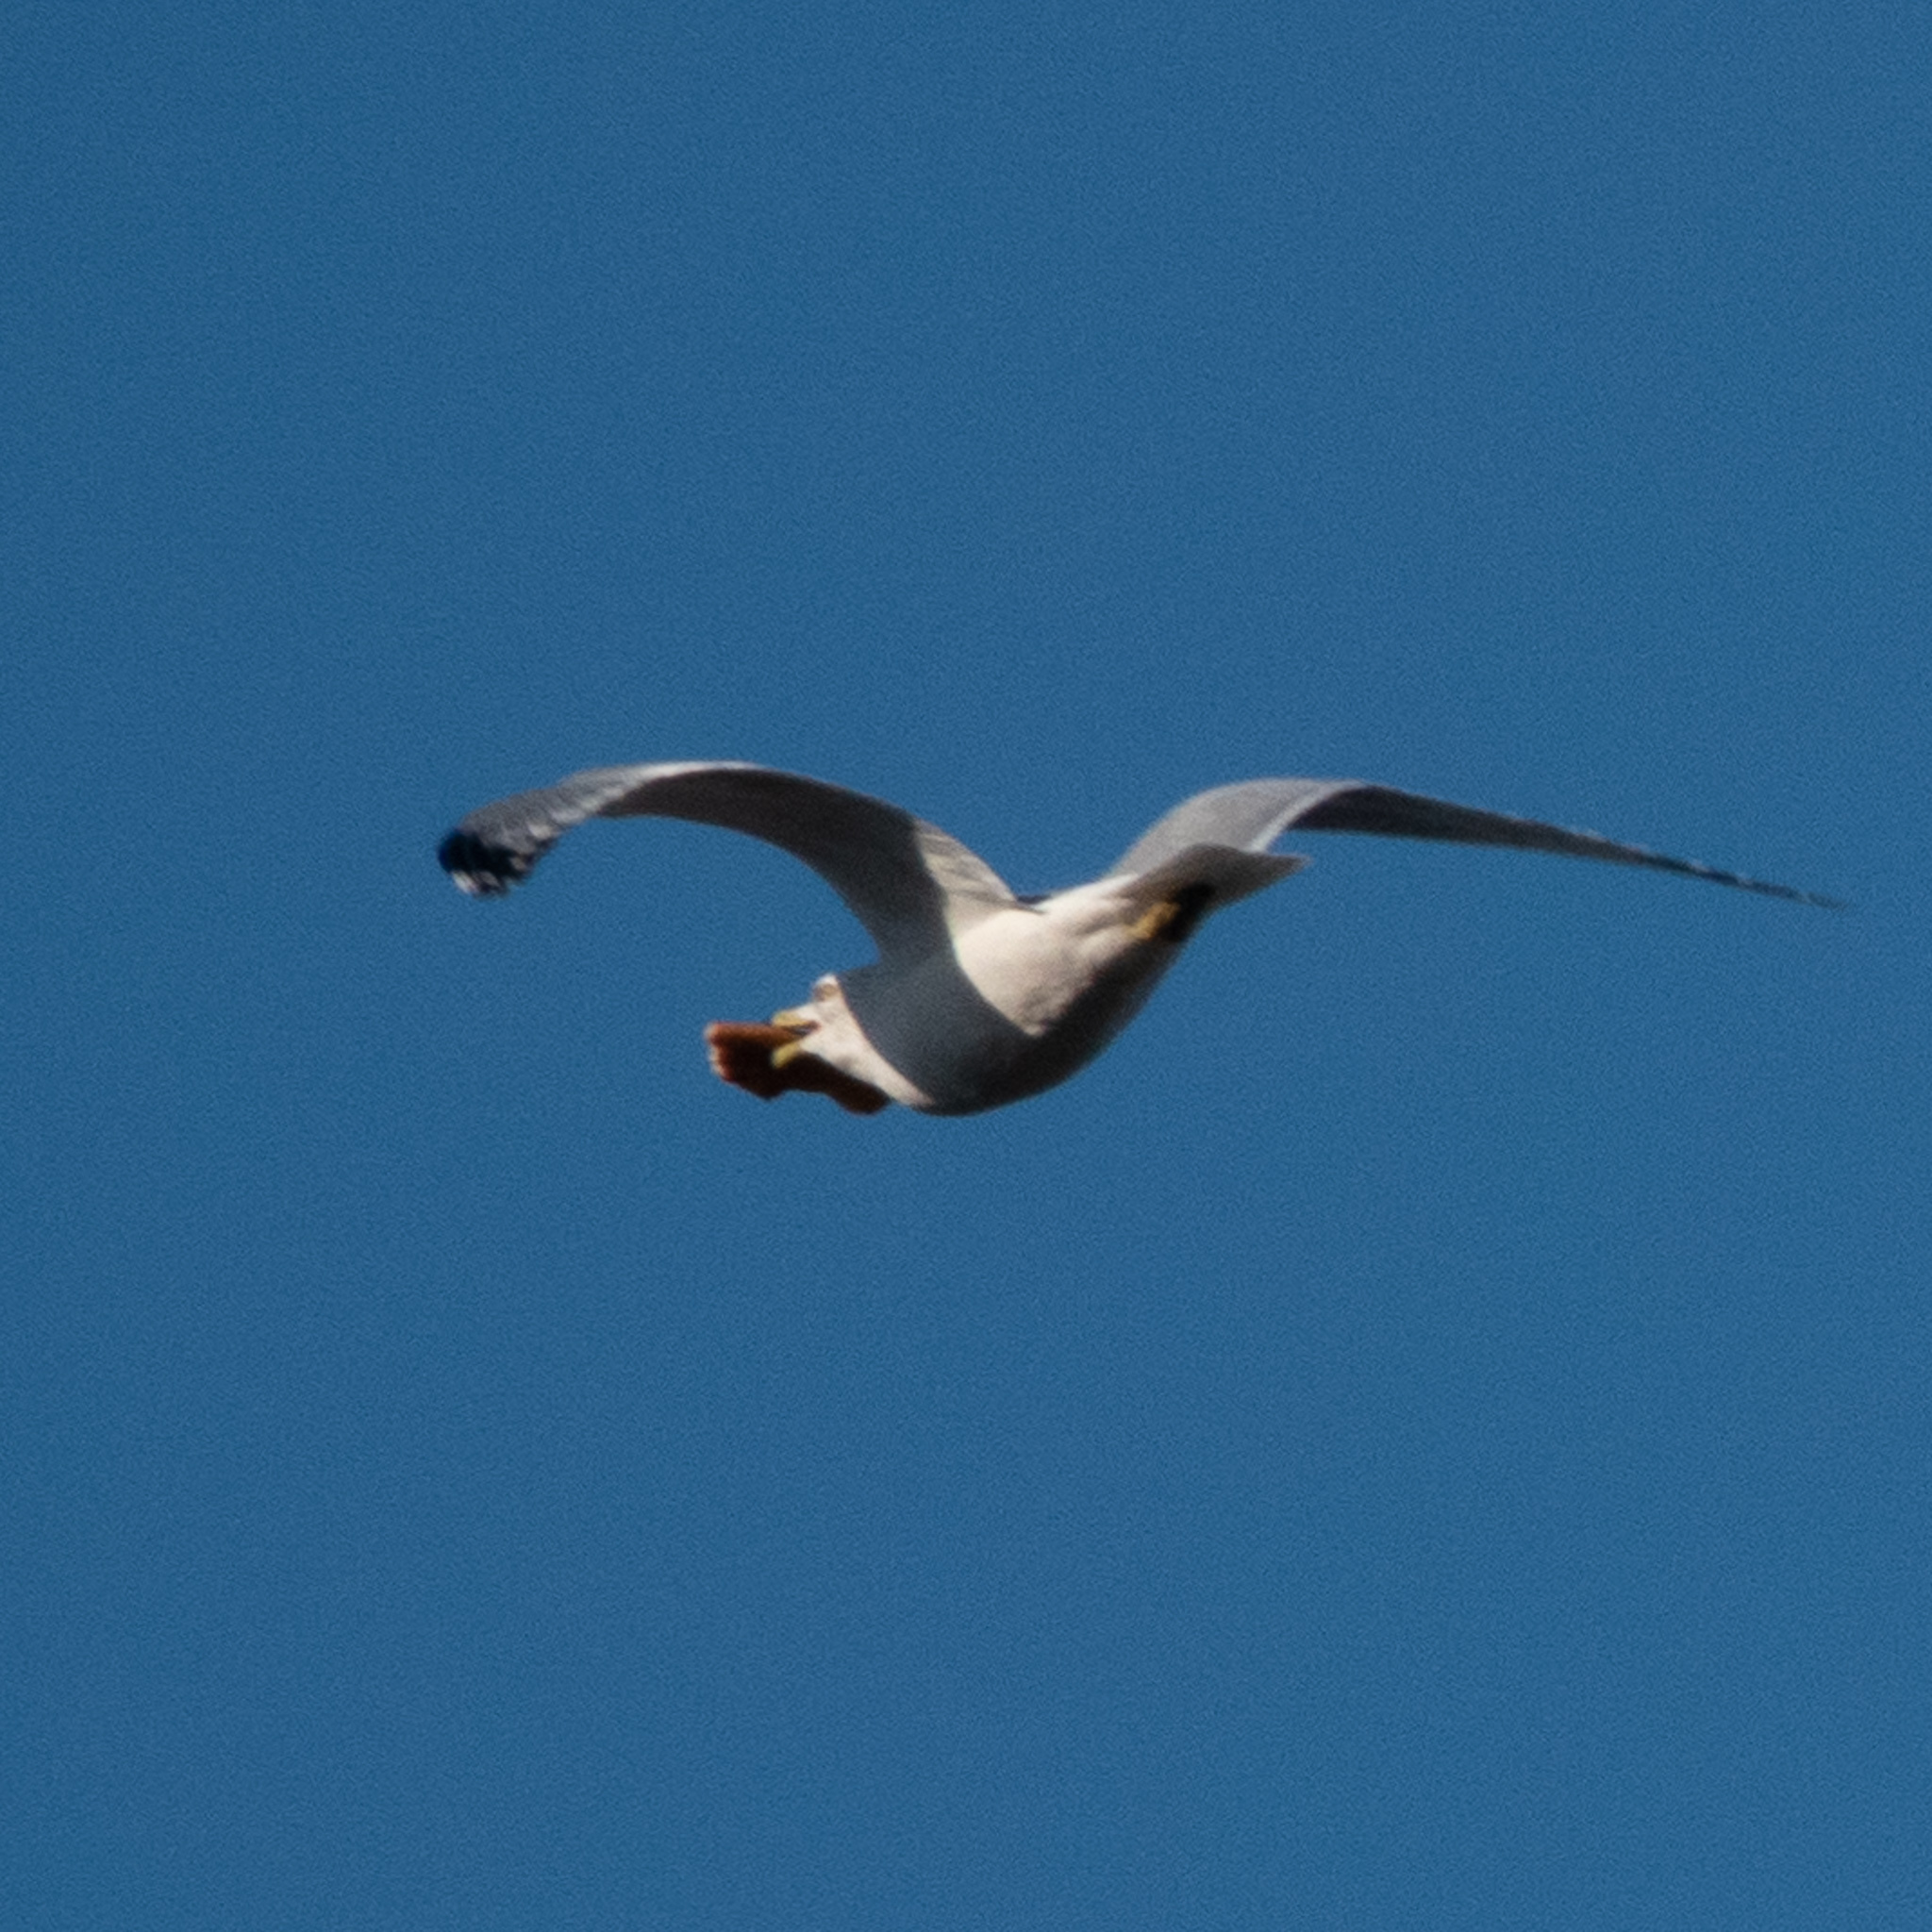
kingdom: Animalia
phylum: Chordata
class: Aves
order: Charadriiformes
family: Laridae
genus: Larus
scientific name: Larus delawarensis
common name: Ring-billed gull
